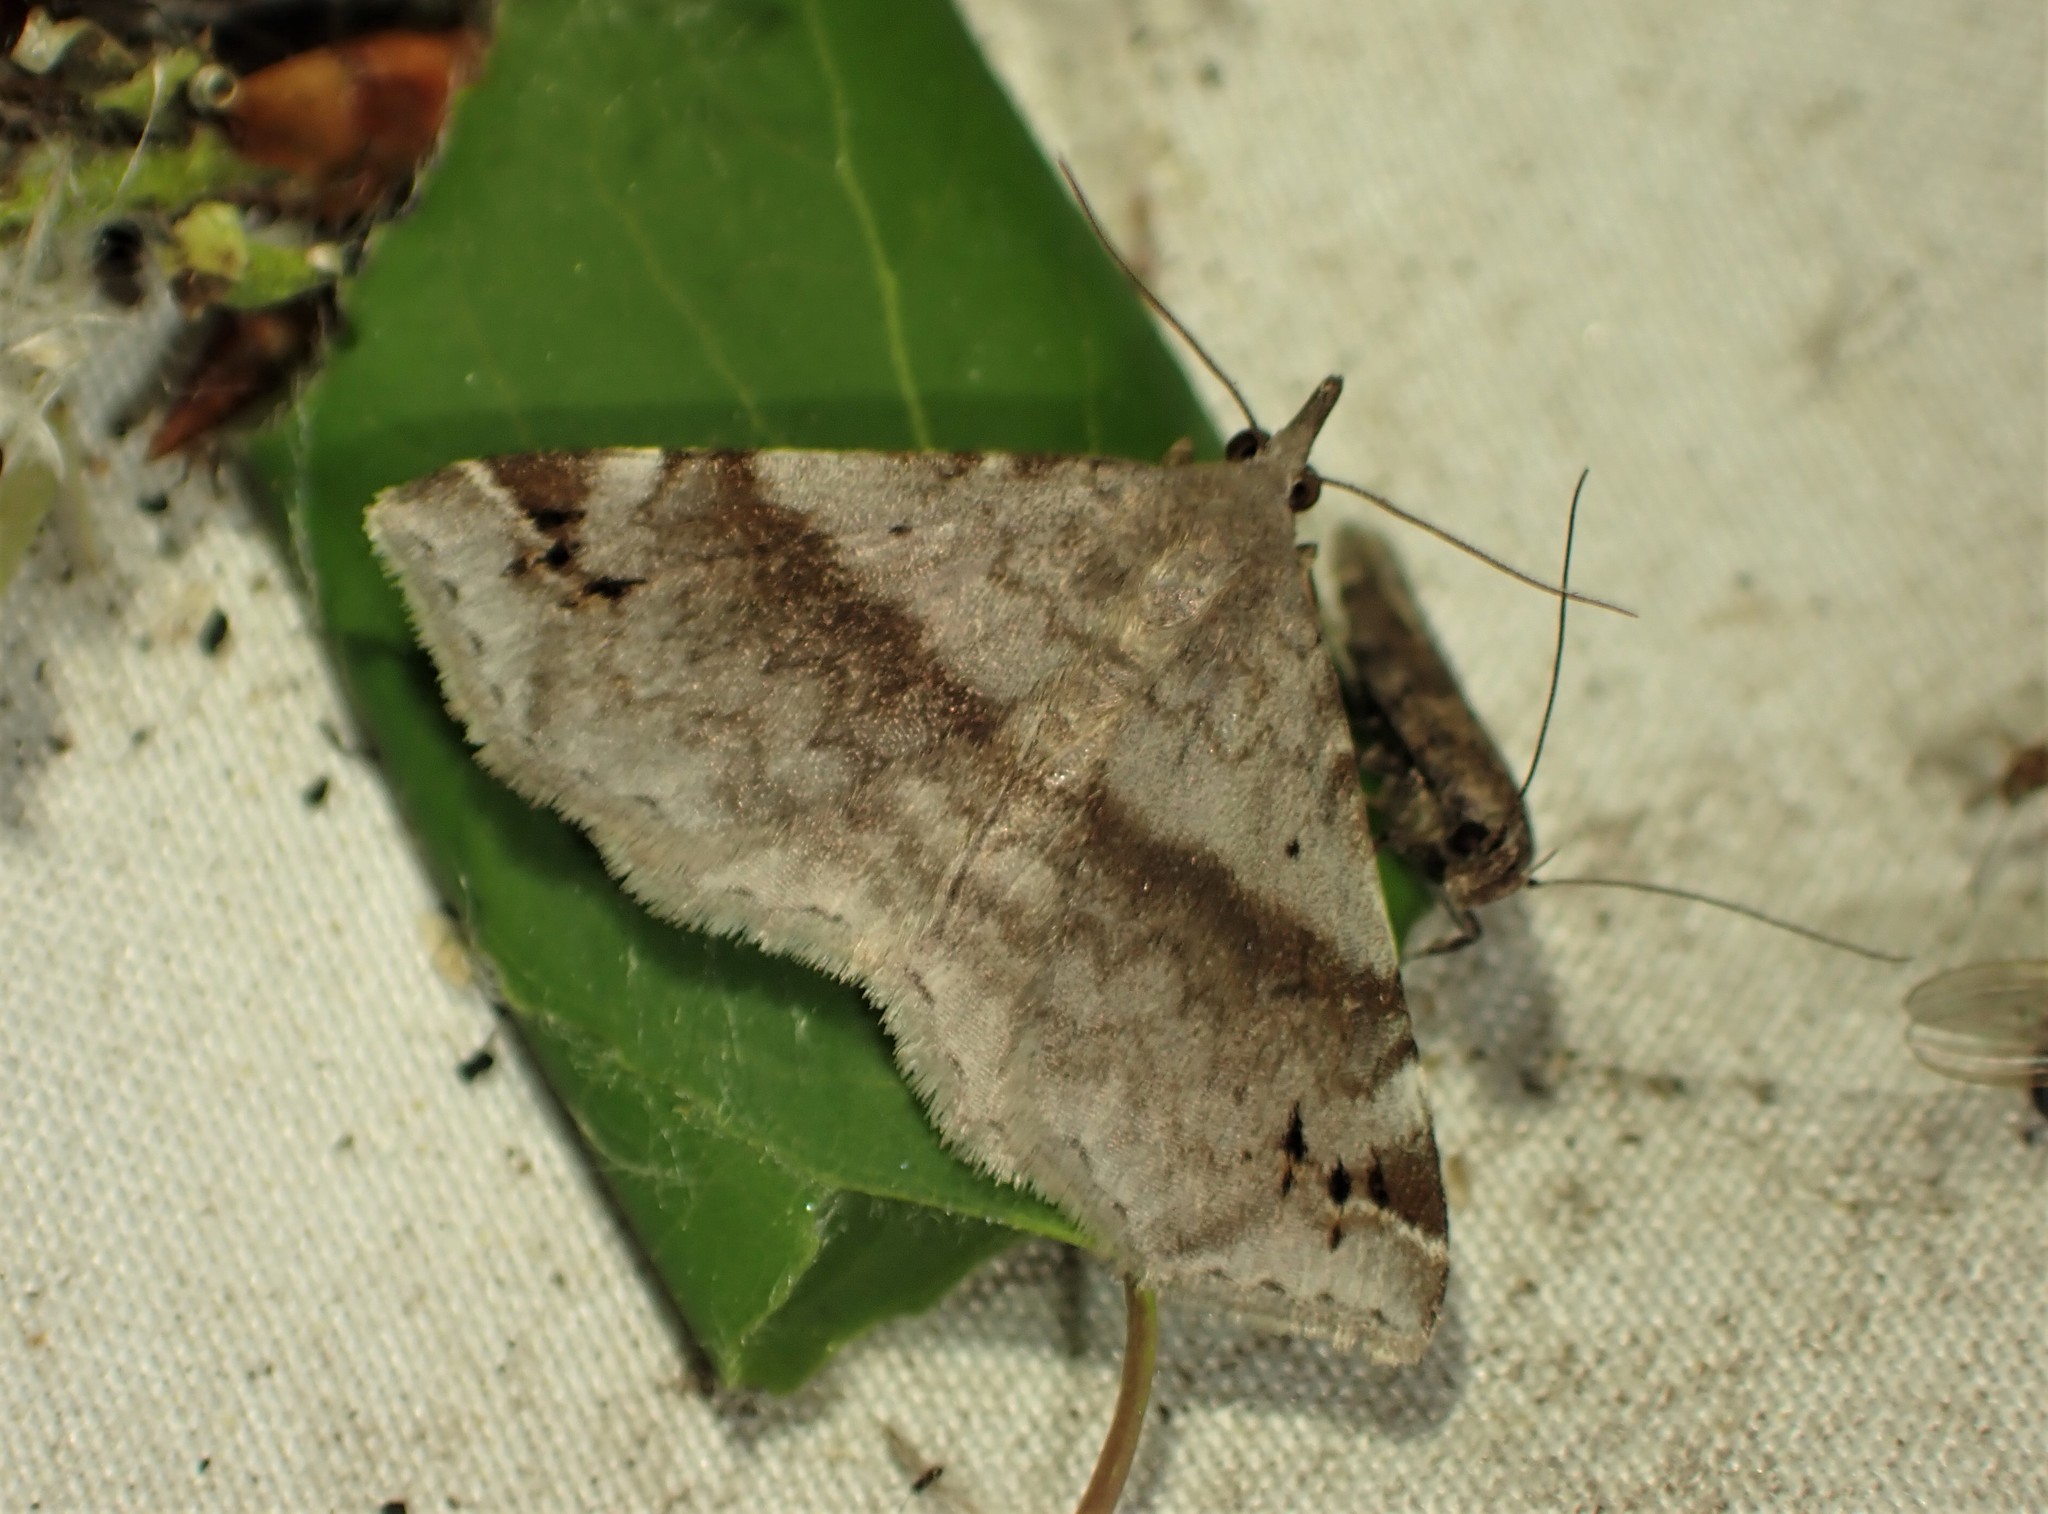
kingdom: Animalia
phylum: Arthropoda
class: Insecta
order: Lepidoptera
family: Erebidae
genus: Spargaloma
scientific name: Spargaloma sexpunctata
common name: Six-spotted gray
